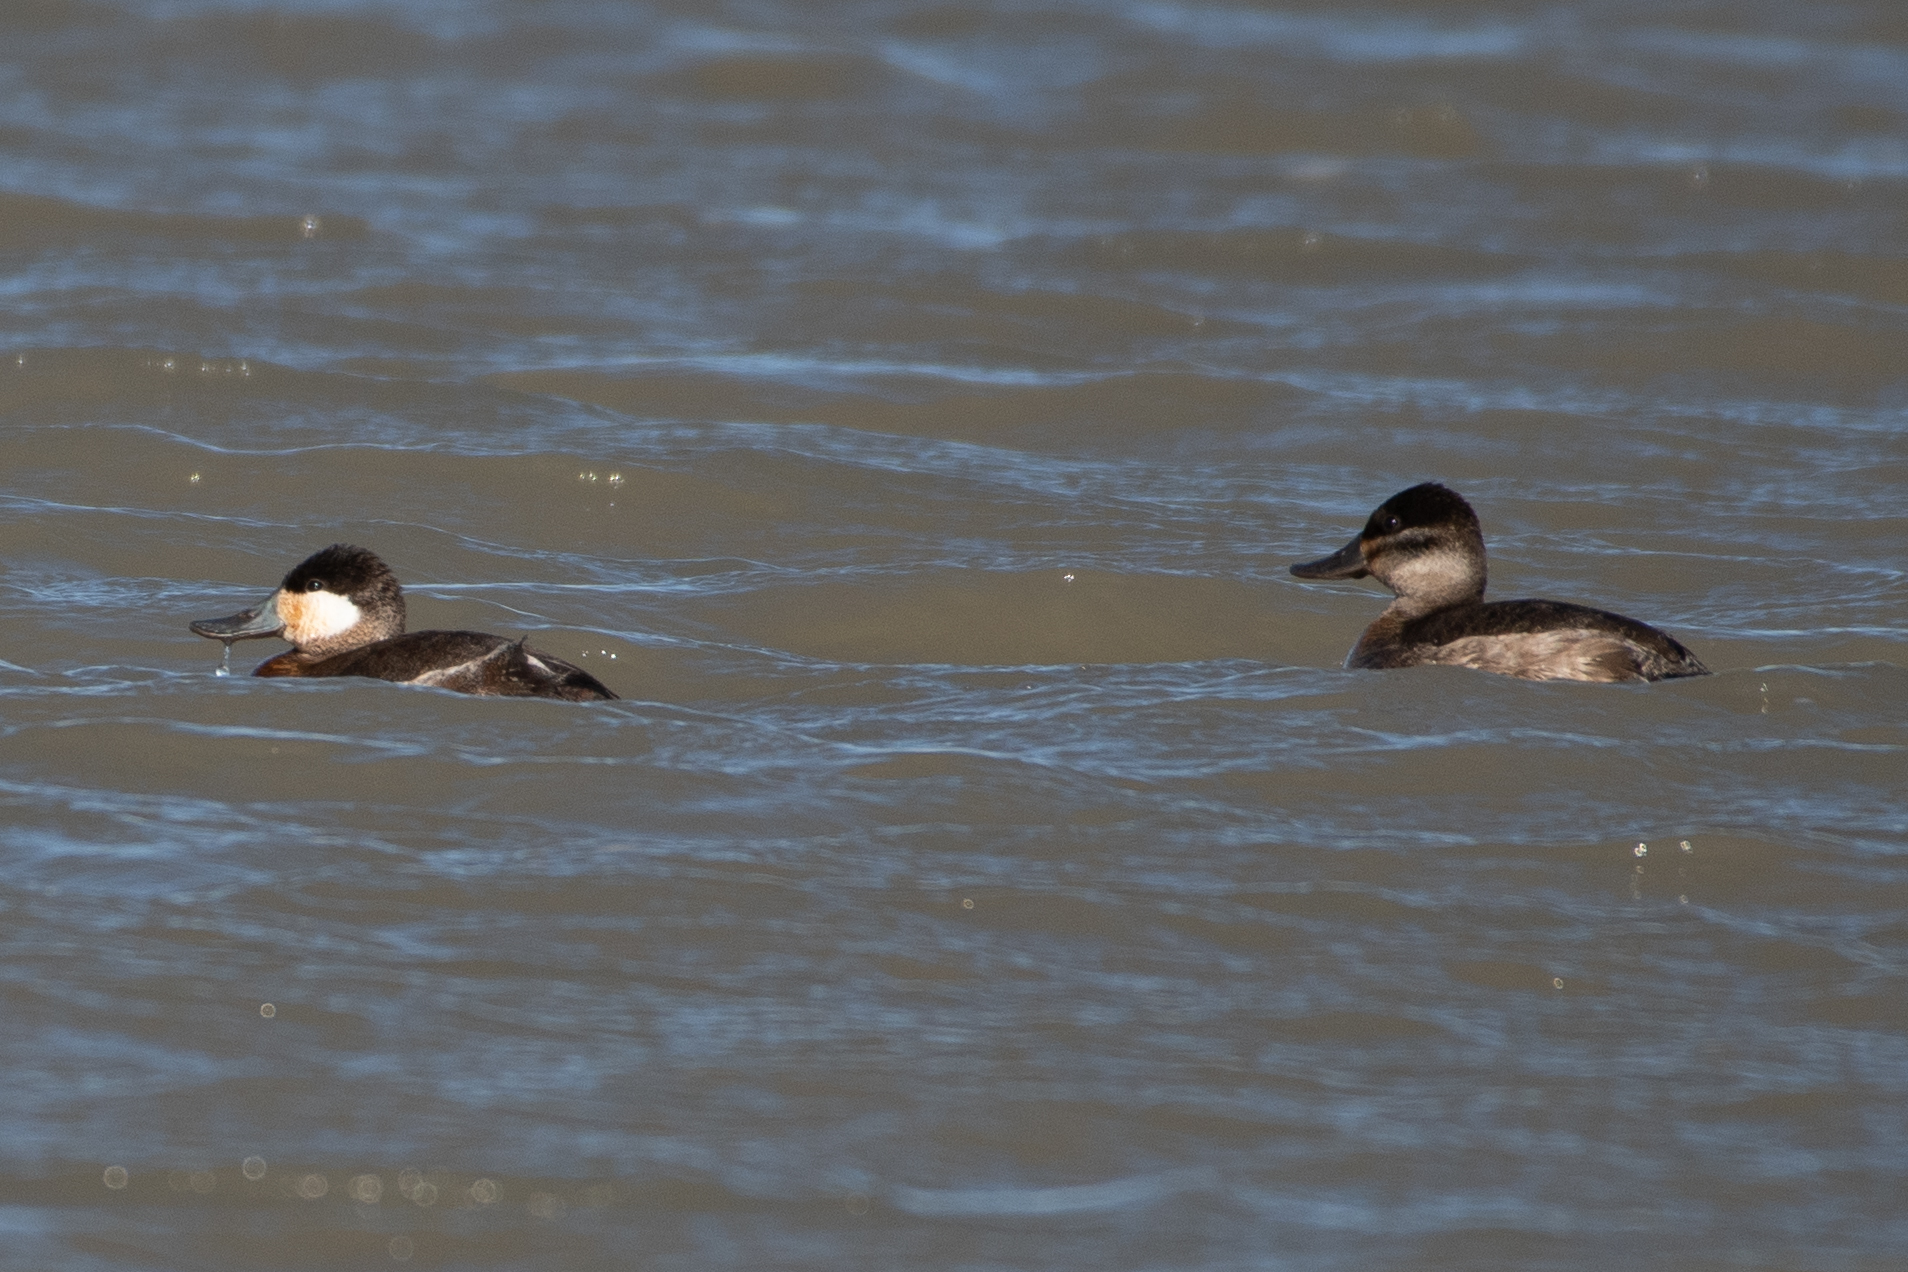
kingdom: Animalia
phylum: Chordata
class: Aves
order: Anseriformes
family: Anatidae
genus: Oxyura
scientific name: Oxyura jamaicensis
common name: Ruddy duck
